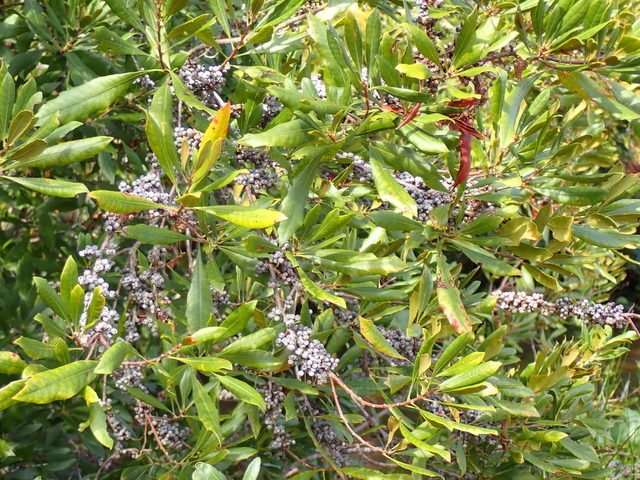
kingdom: Plantae
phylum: Tracheophyta
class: Magnoliopsida
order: Fagales
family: Myricaceae
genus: Morella
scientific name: Morella cerifera
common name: Wax myrtle
